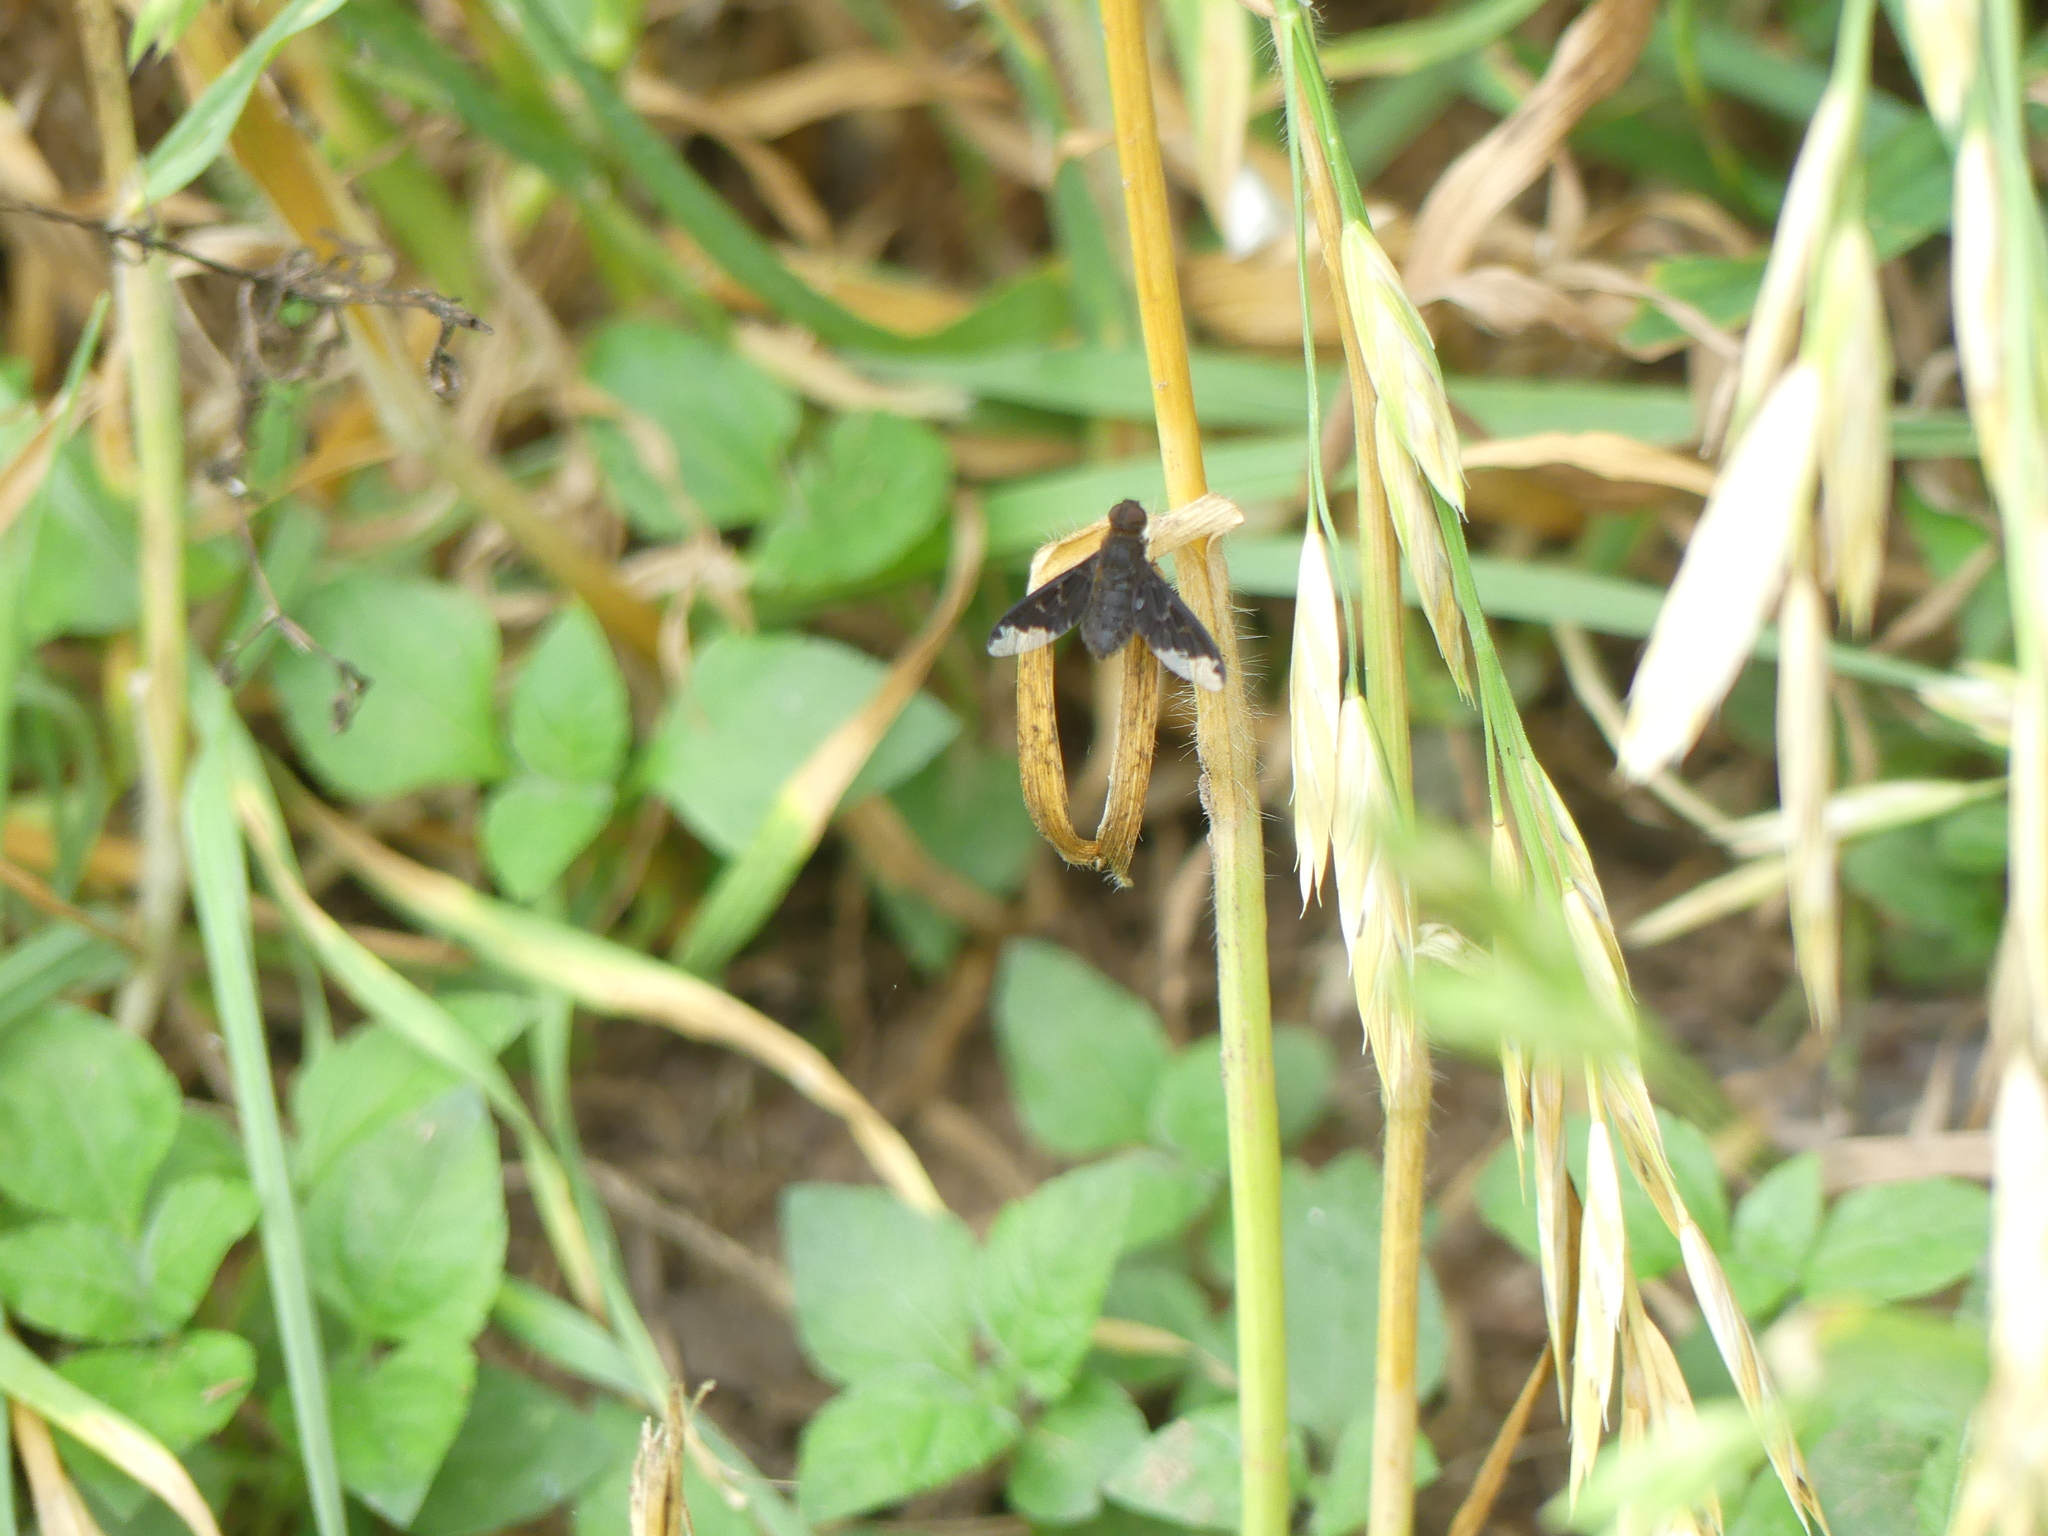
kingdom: Animalia
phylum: Arthropoda
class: Insecta
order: Diptera
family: Bombyliidae
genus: Hemipenthes
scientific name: Hemipenthes sinuosus
